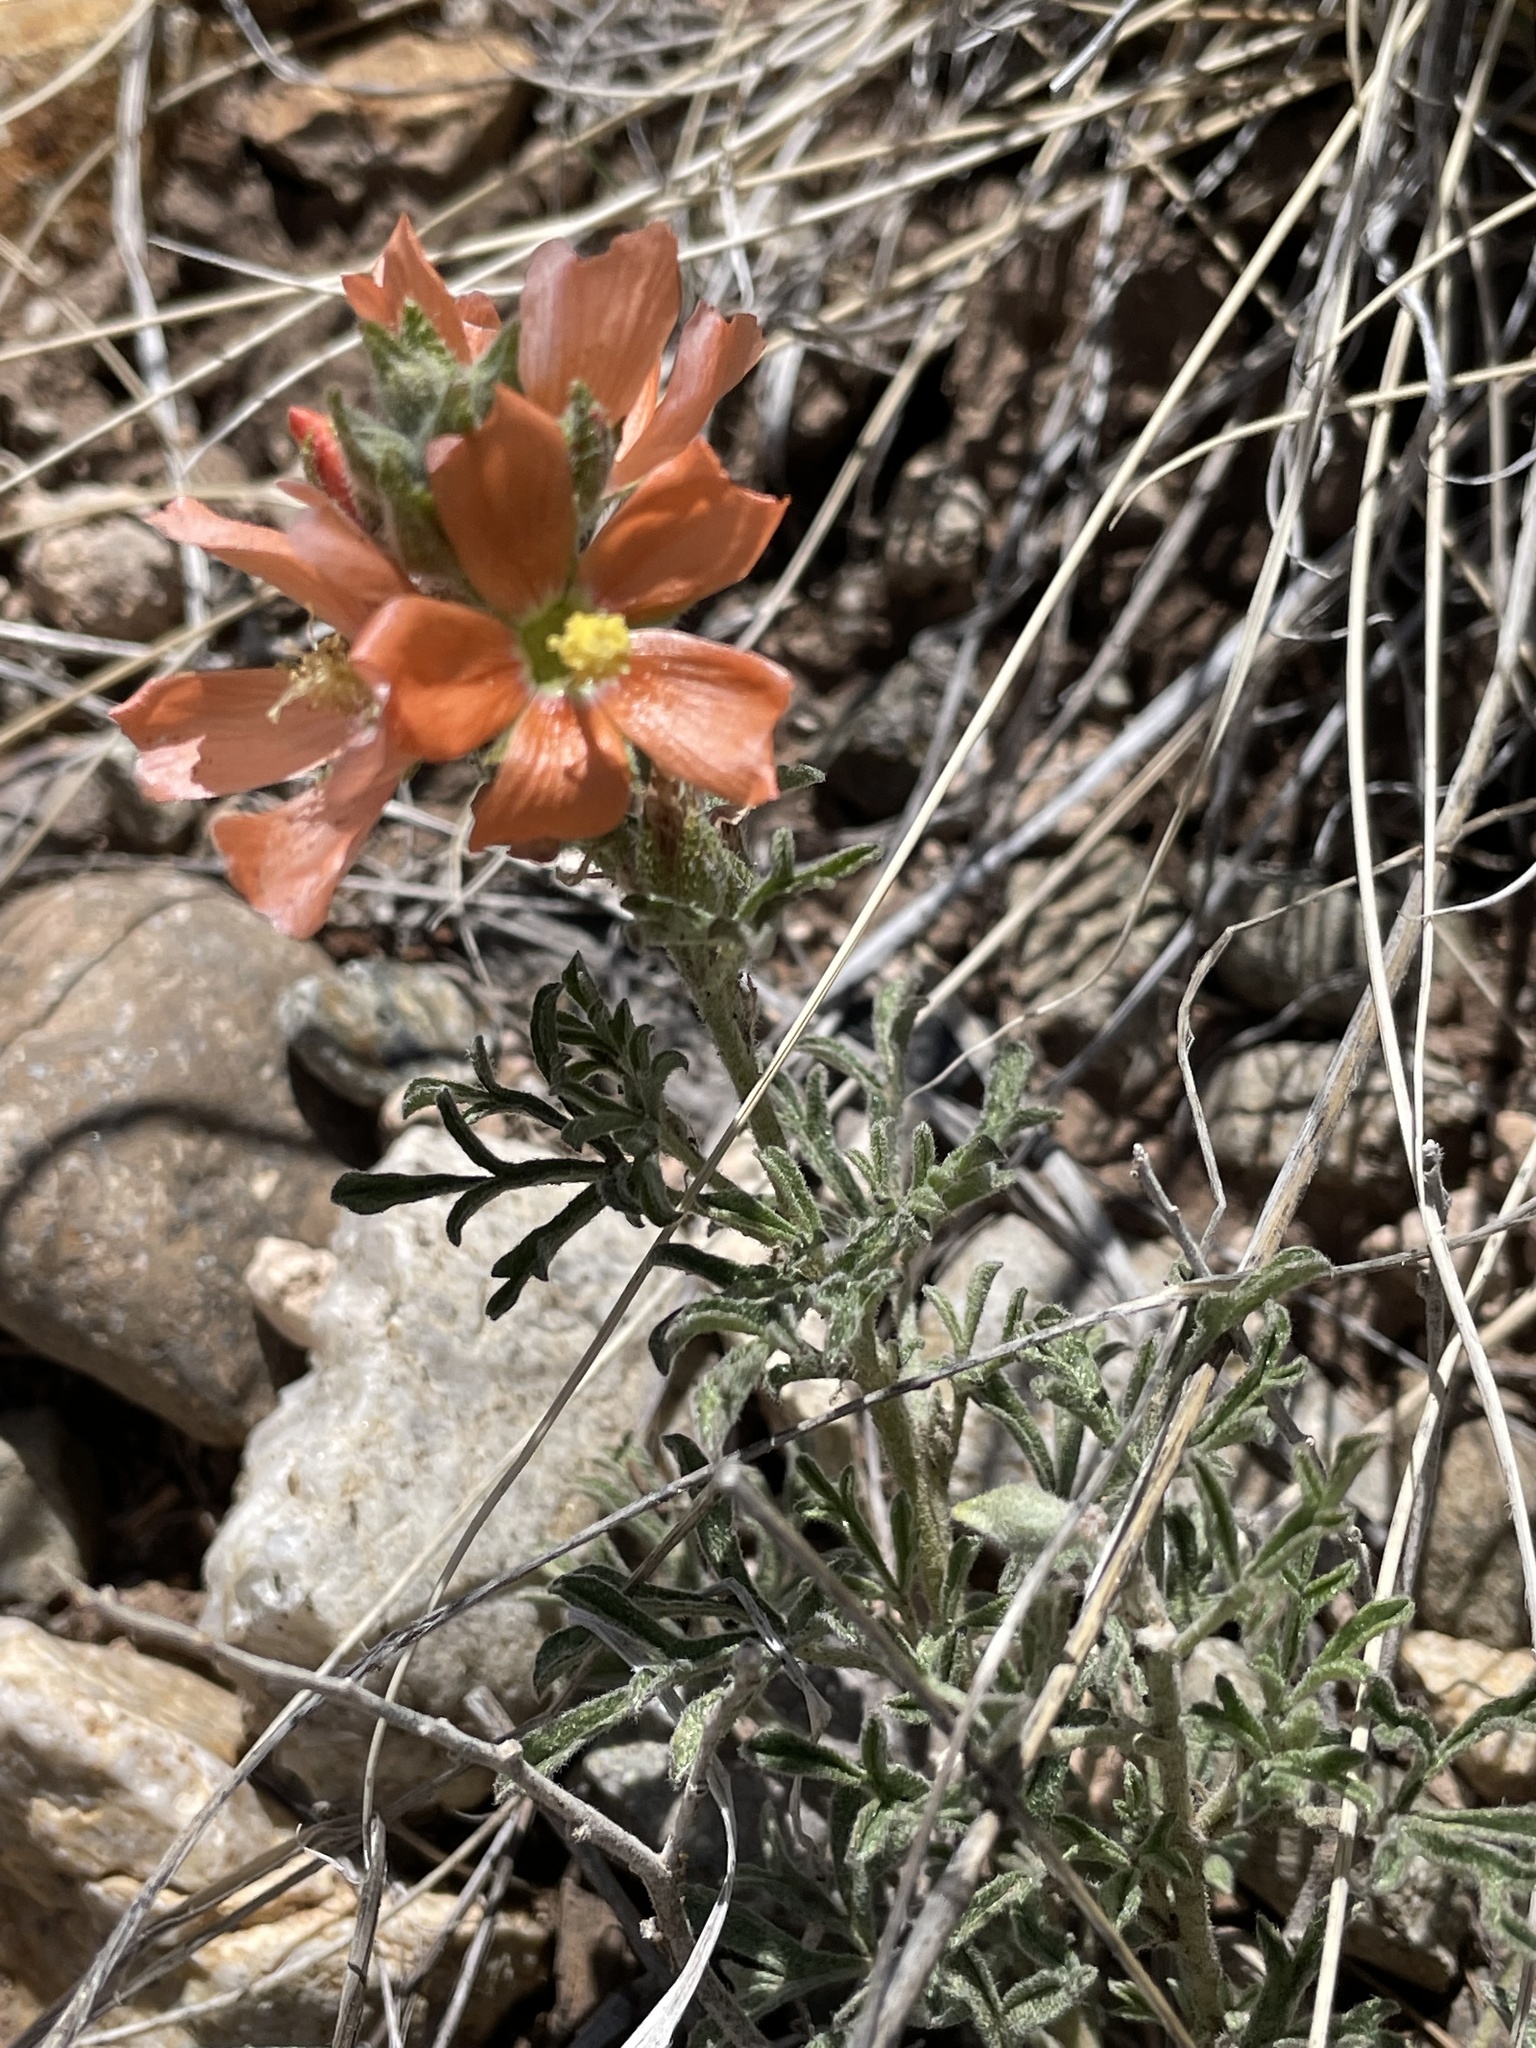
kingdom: Plantae
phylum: Tracheophyta
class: Magnoliopsida
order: Malvales
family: Malvaceae
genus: Sphaeralcea
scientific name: Sphaeralcea coccinea
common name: Moss-rose
